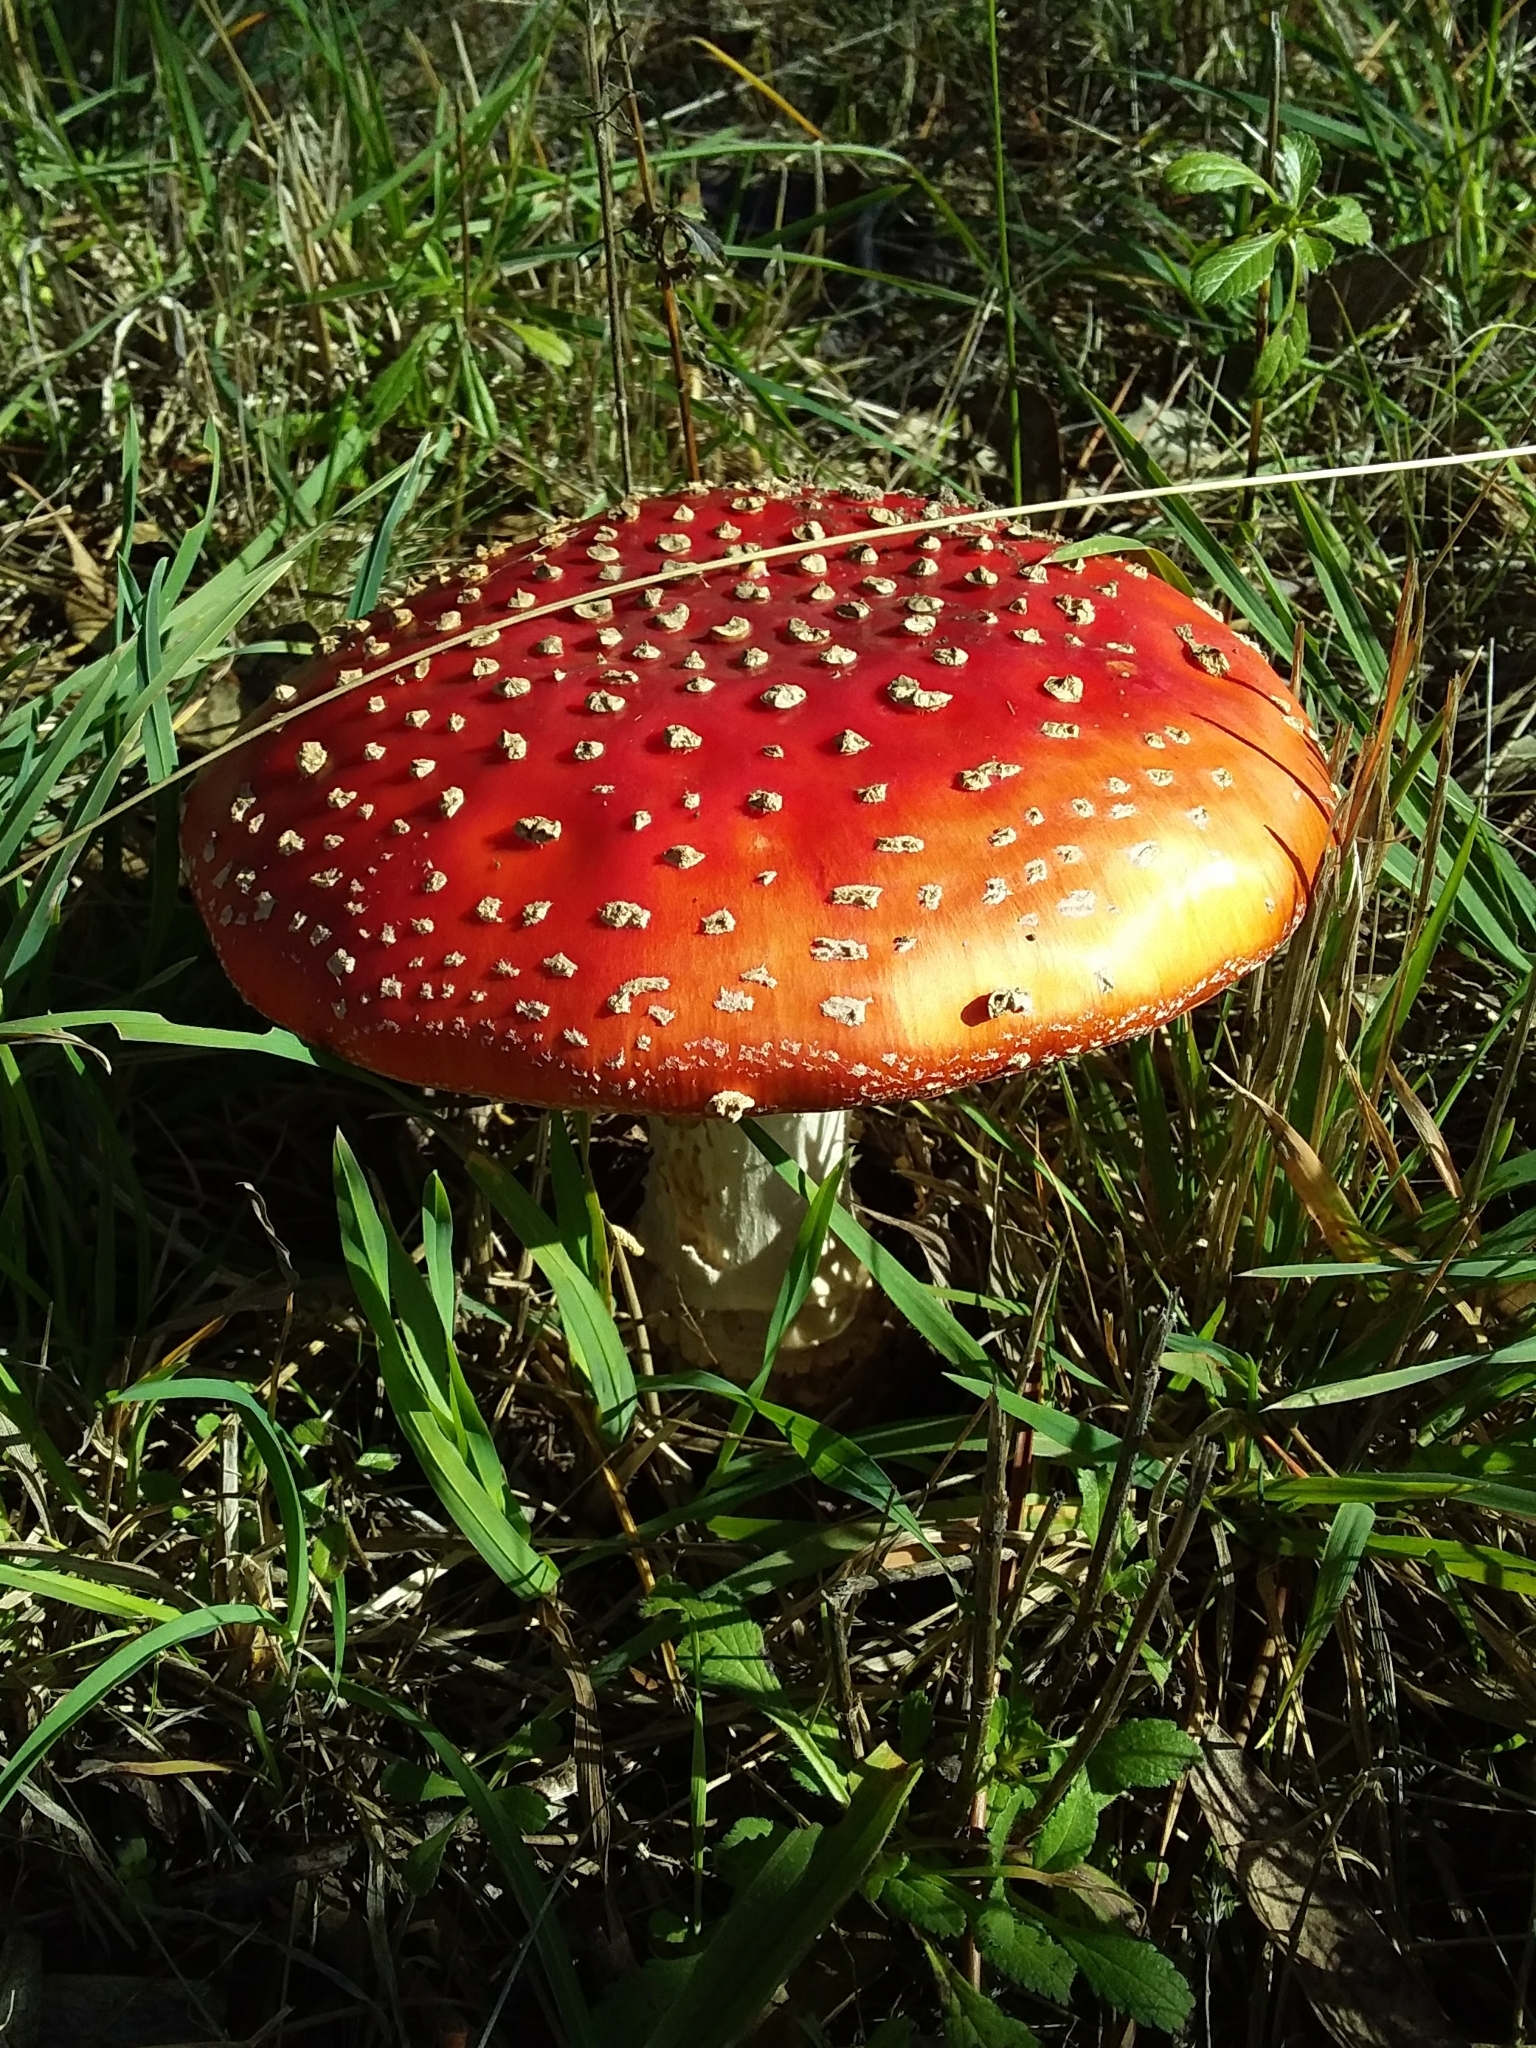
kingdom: Fungi
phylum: Basidiomycota
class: Agaricomycetes
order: Agaricales
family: Amanitaceae
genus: Amanita
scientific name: Amanita muscaria
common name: Fly agaric
